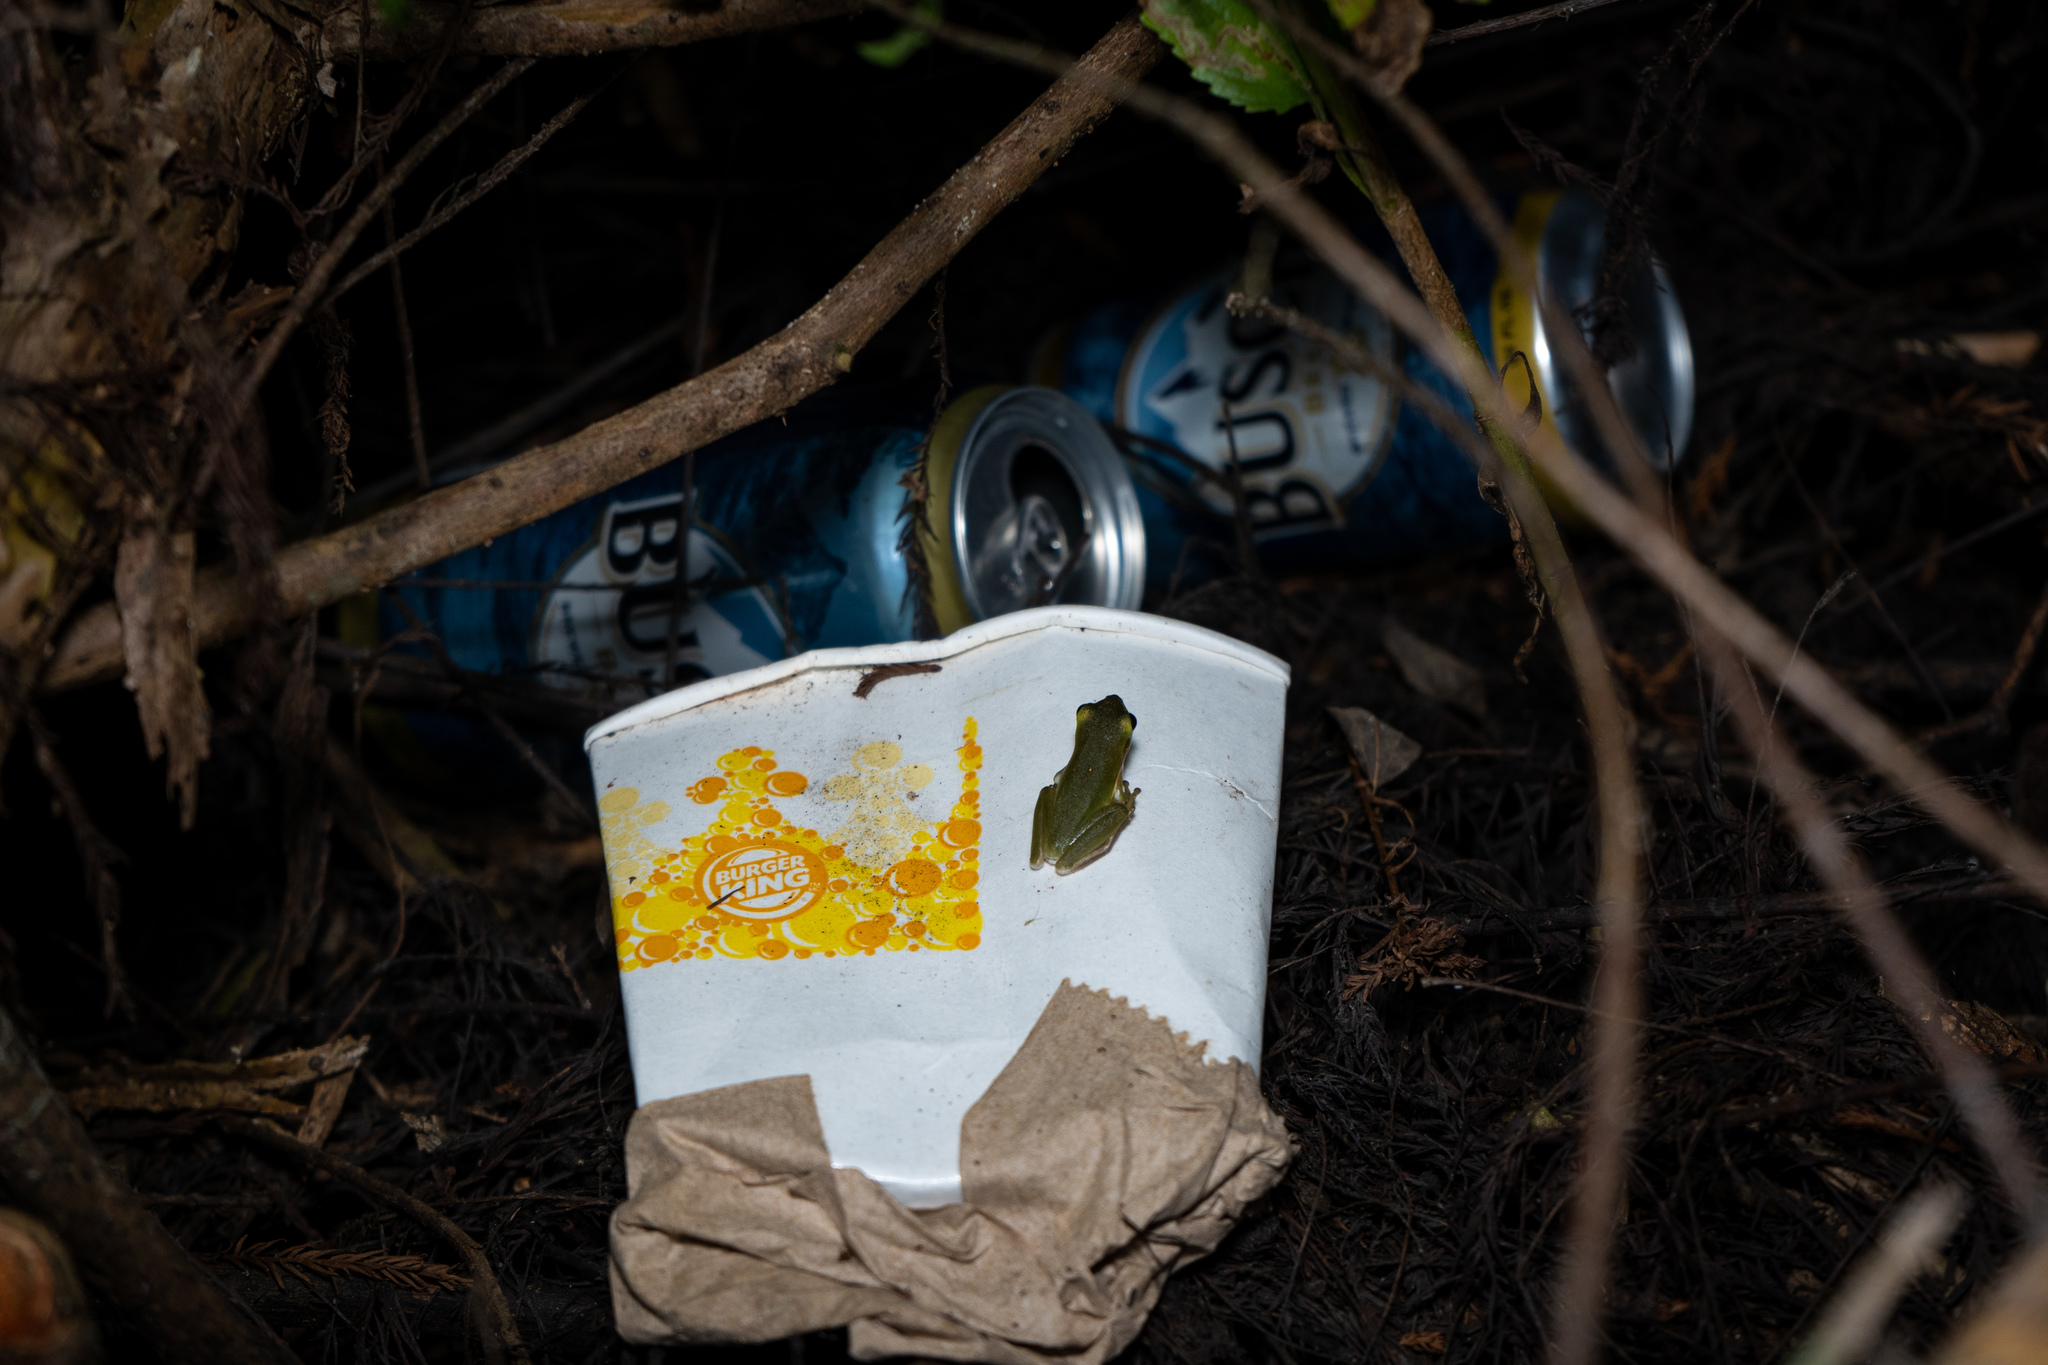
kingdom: Animalia
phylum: Chordata
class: Amphibia
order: Anura
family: Hylidae
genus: Dryophytes
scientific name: Dryophytes cinereus
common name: Green treefrog
